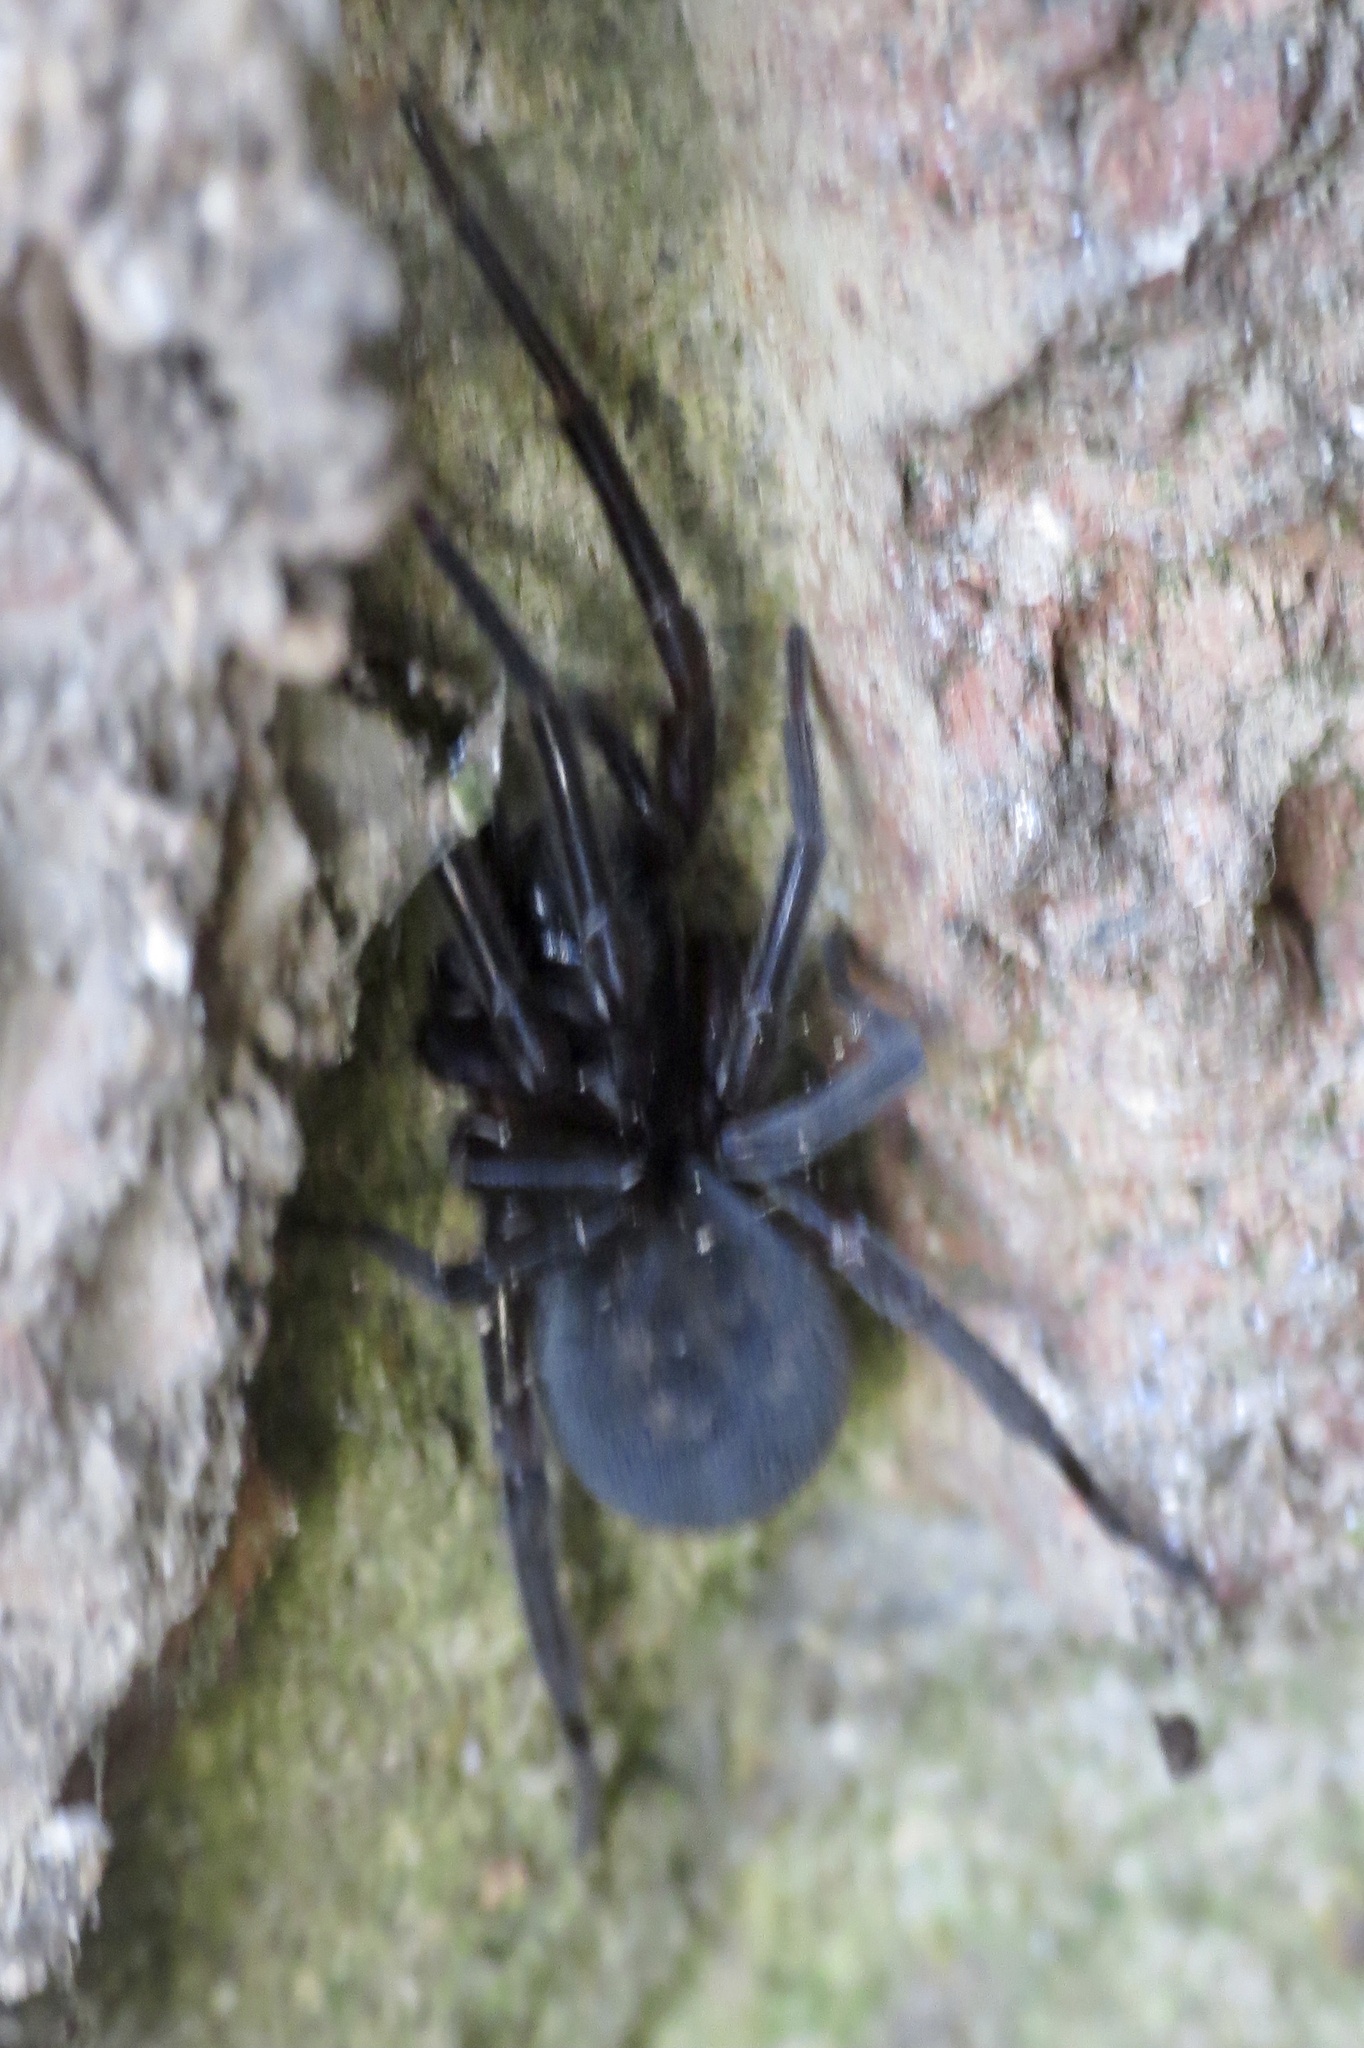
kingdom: Animalia
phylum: Arthropoda
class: Arachnida
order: Araneae
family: Amaurobiidae
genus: Amaurobius
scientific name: Amaurobius ferox
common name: Black laceweaver
